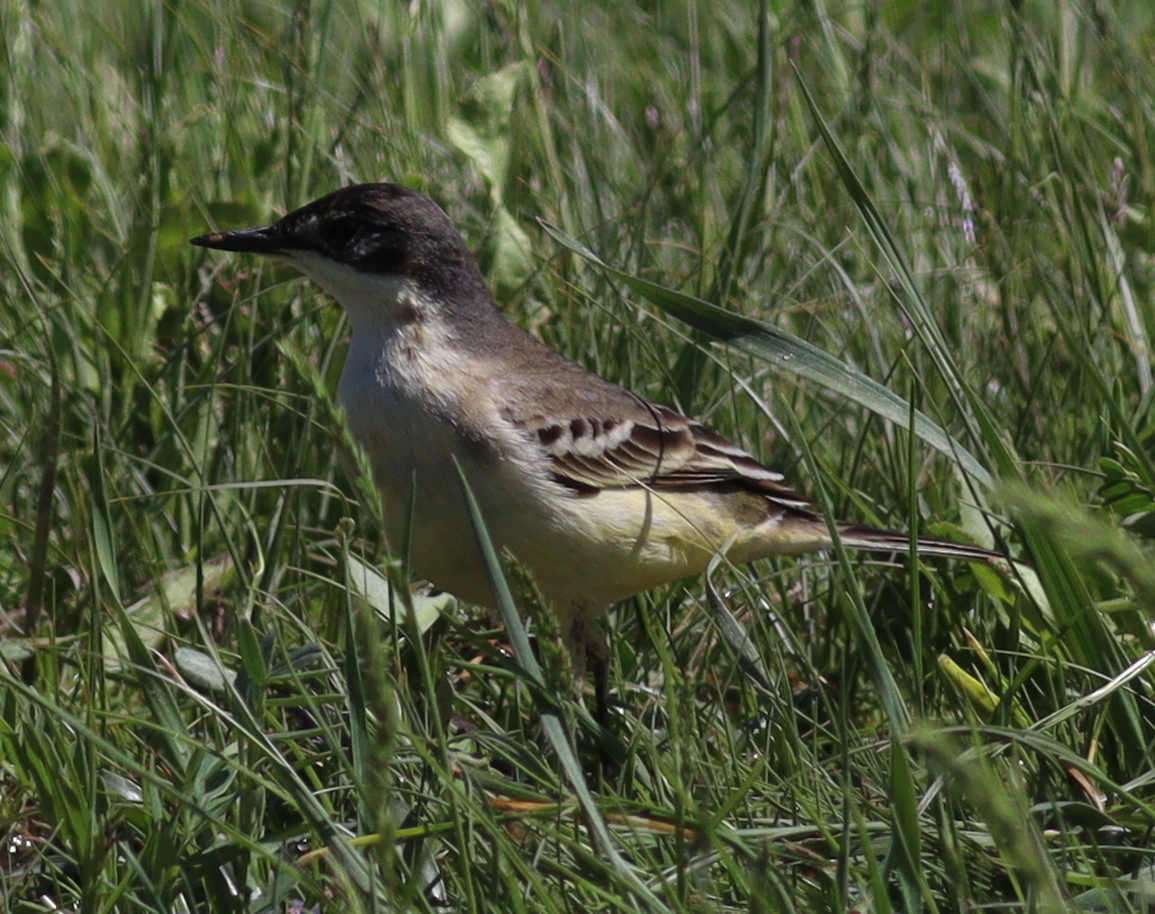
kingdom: Animalia
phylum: Chordata
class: Aves
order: Passeriformes
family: Motacillidae
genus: Motacilla
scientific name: Motacilla flava
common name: Western yellow wagtail
